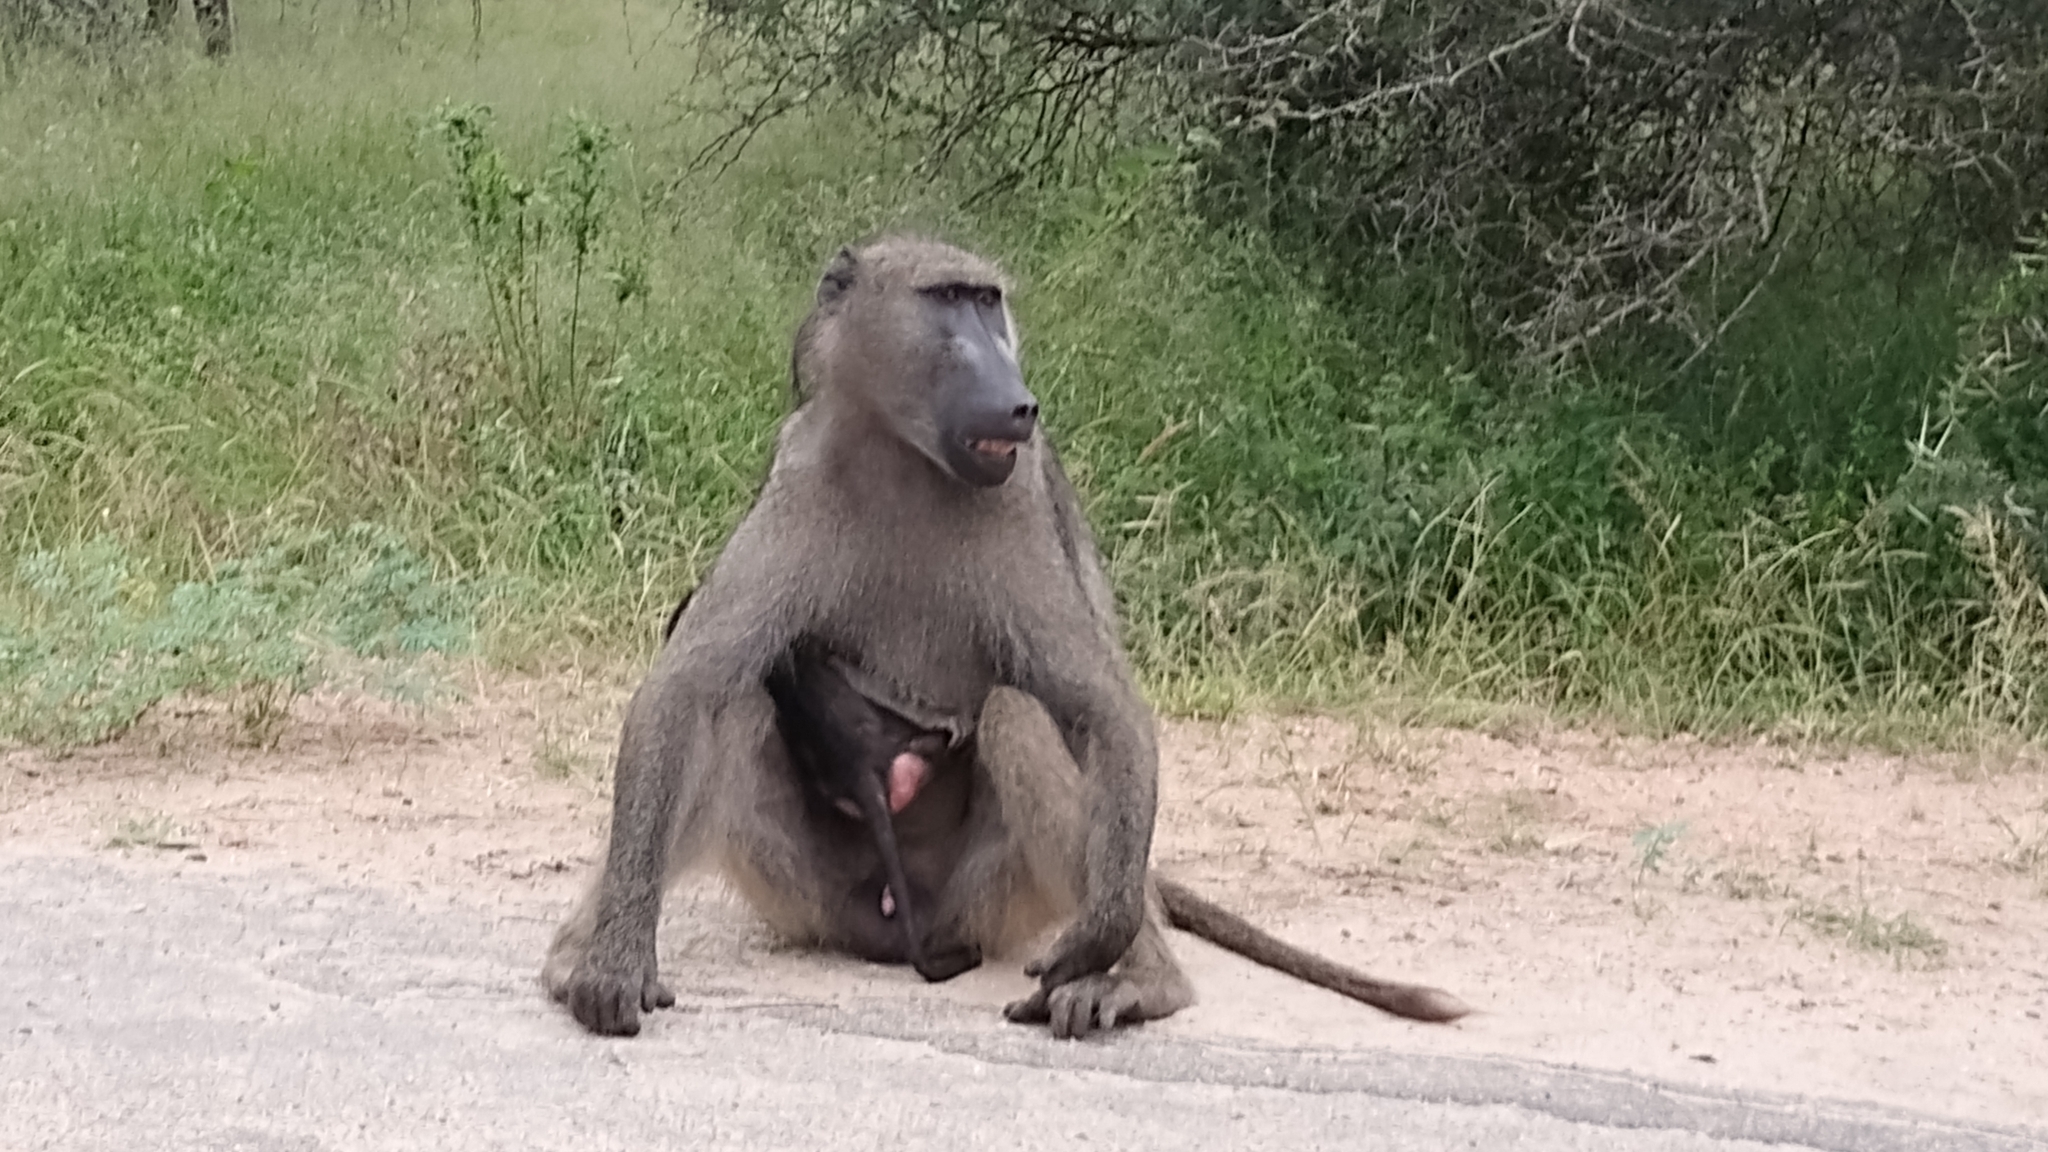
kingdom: Animalia
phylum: Chordata
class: Mammalia
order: Primates
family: Cercopithecidae
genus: Papio
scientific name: Papio ursinus
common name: Chacma baboon
